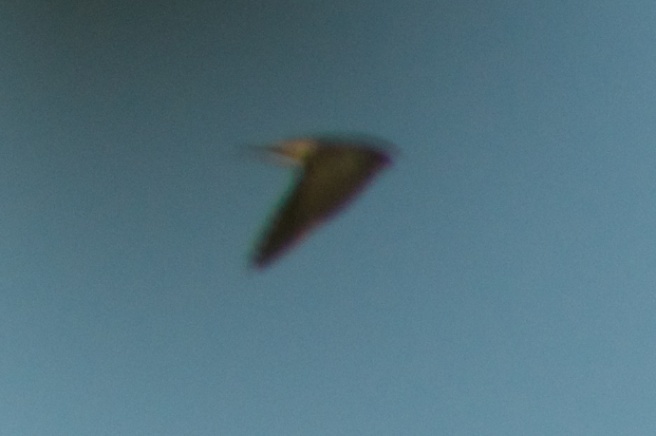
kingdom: Animalia
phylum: Chordata
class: Aves
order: Passeriformes
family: Hirundinidae
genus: Hirundo
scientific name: Hirundo rustica
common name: Barn swallow
